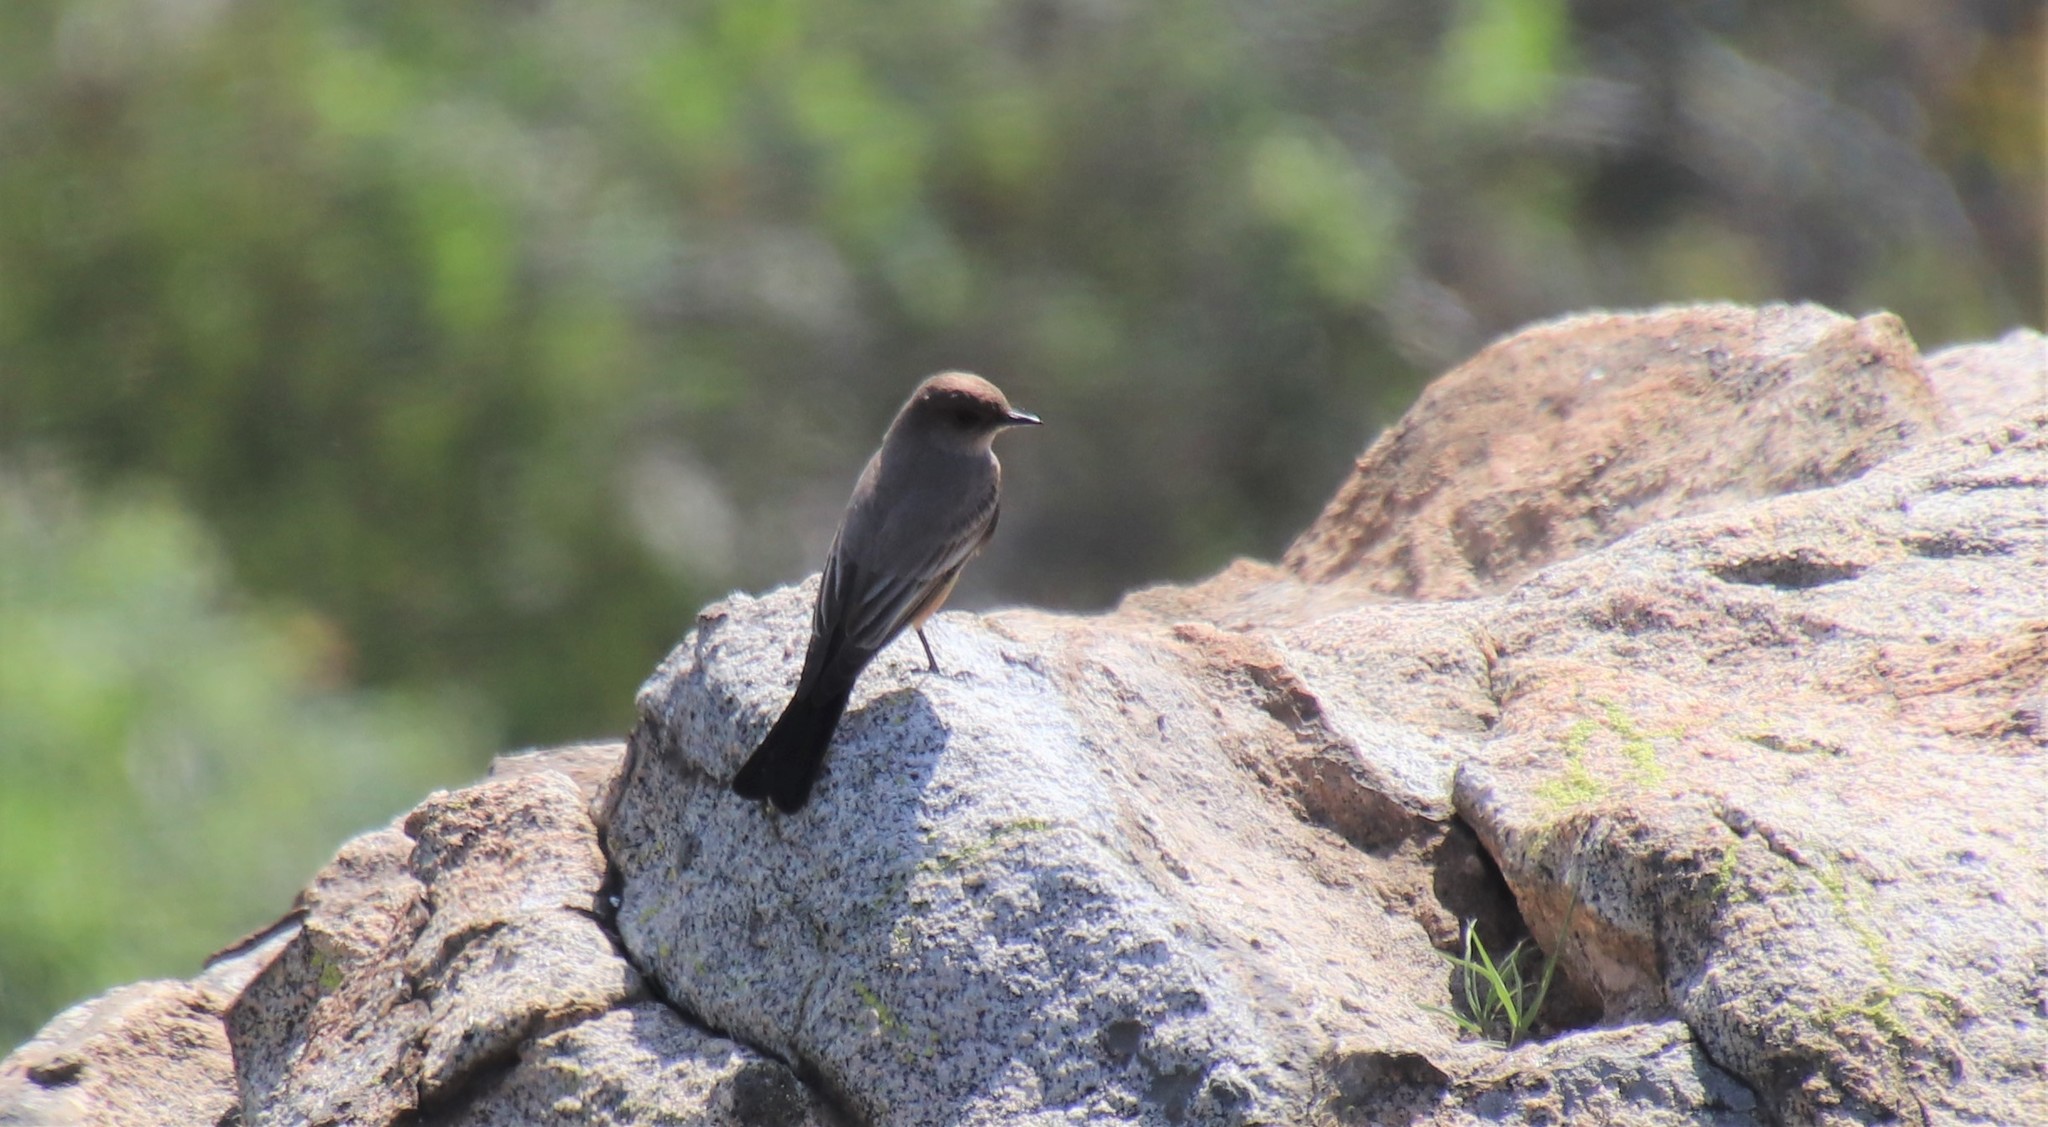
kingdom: Animalia
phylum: Chordata
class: Aves
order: Passeriformes
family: Tyrannidae
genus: Sayornis
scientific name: Sayornis saya
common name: Say's phoebe
